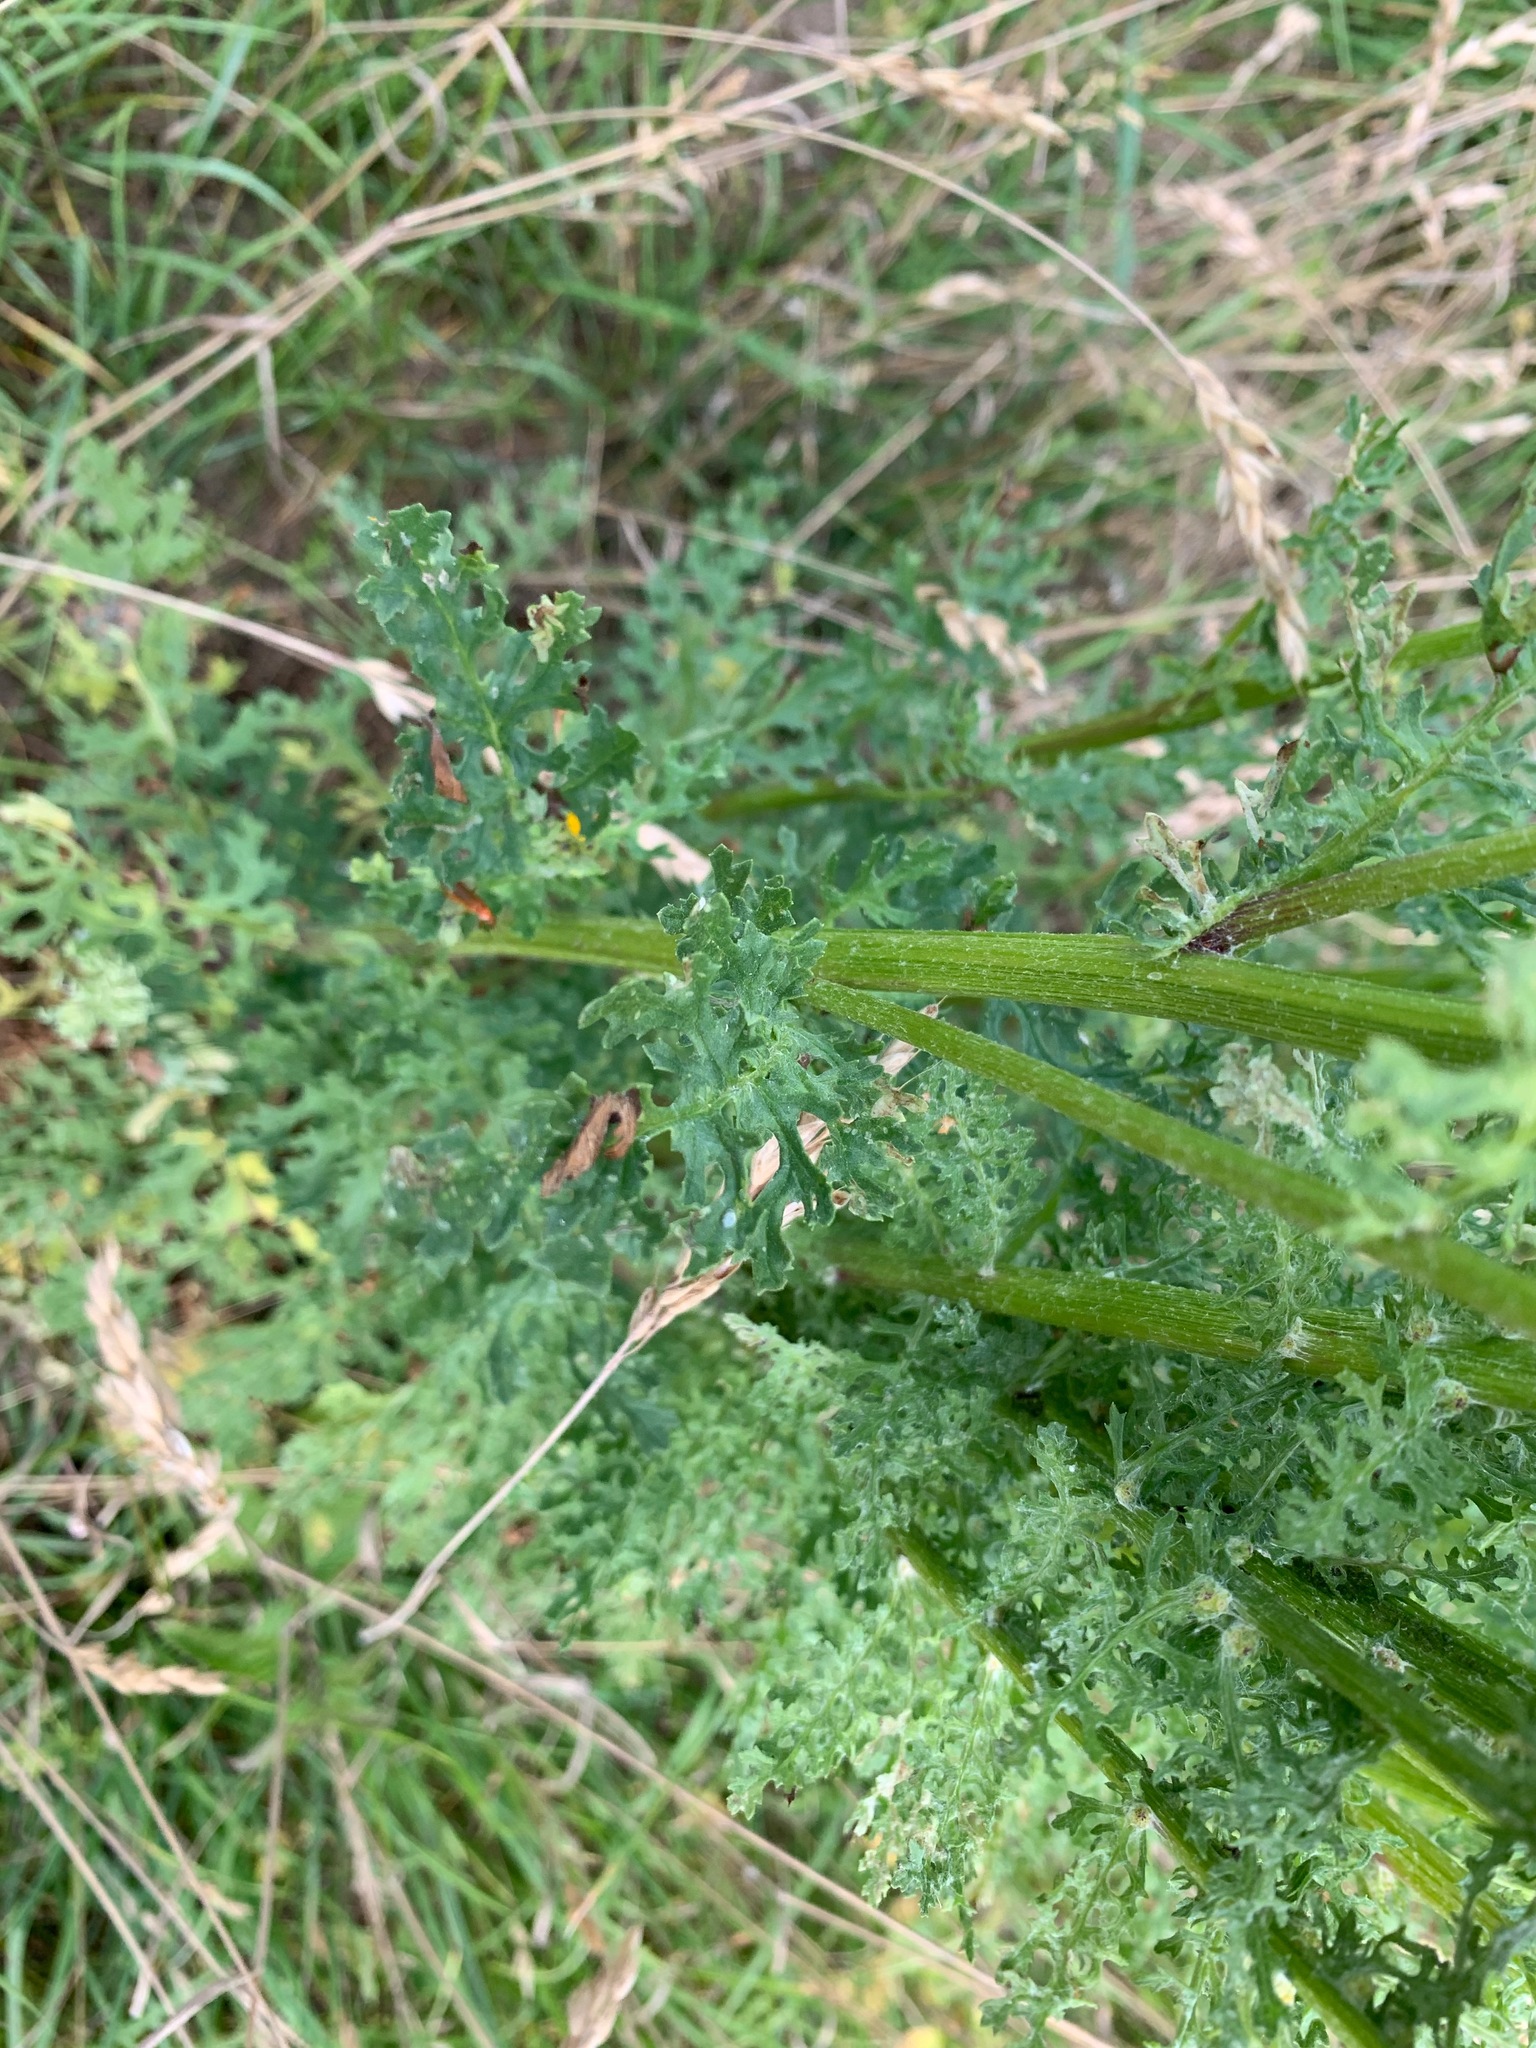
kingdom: Plantae
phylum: Tracheophyta
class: Magnoliopsida
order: Asterales
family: Asteraceae
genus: Jacobaea
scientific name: Jacobaea vulgaris
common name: Stinking willie
